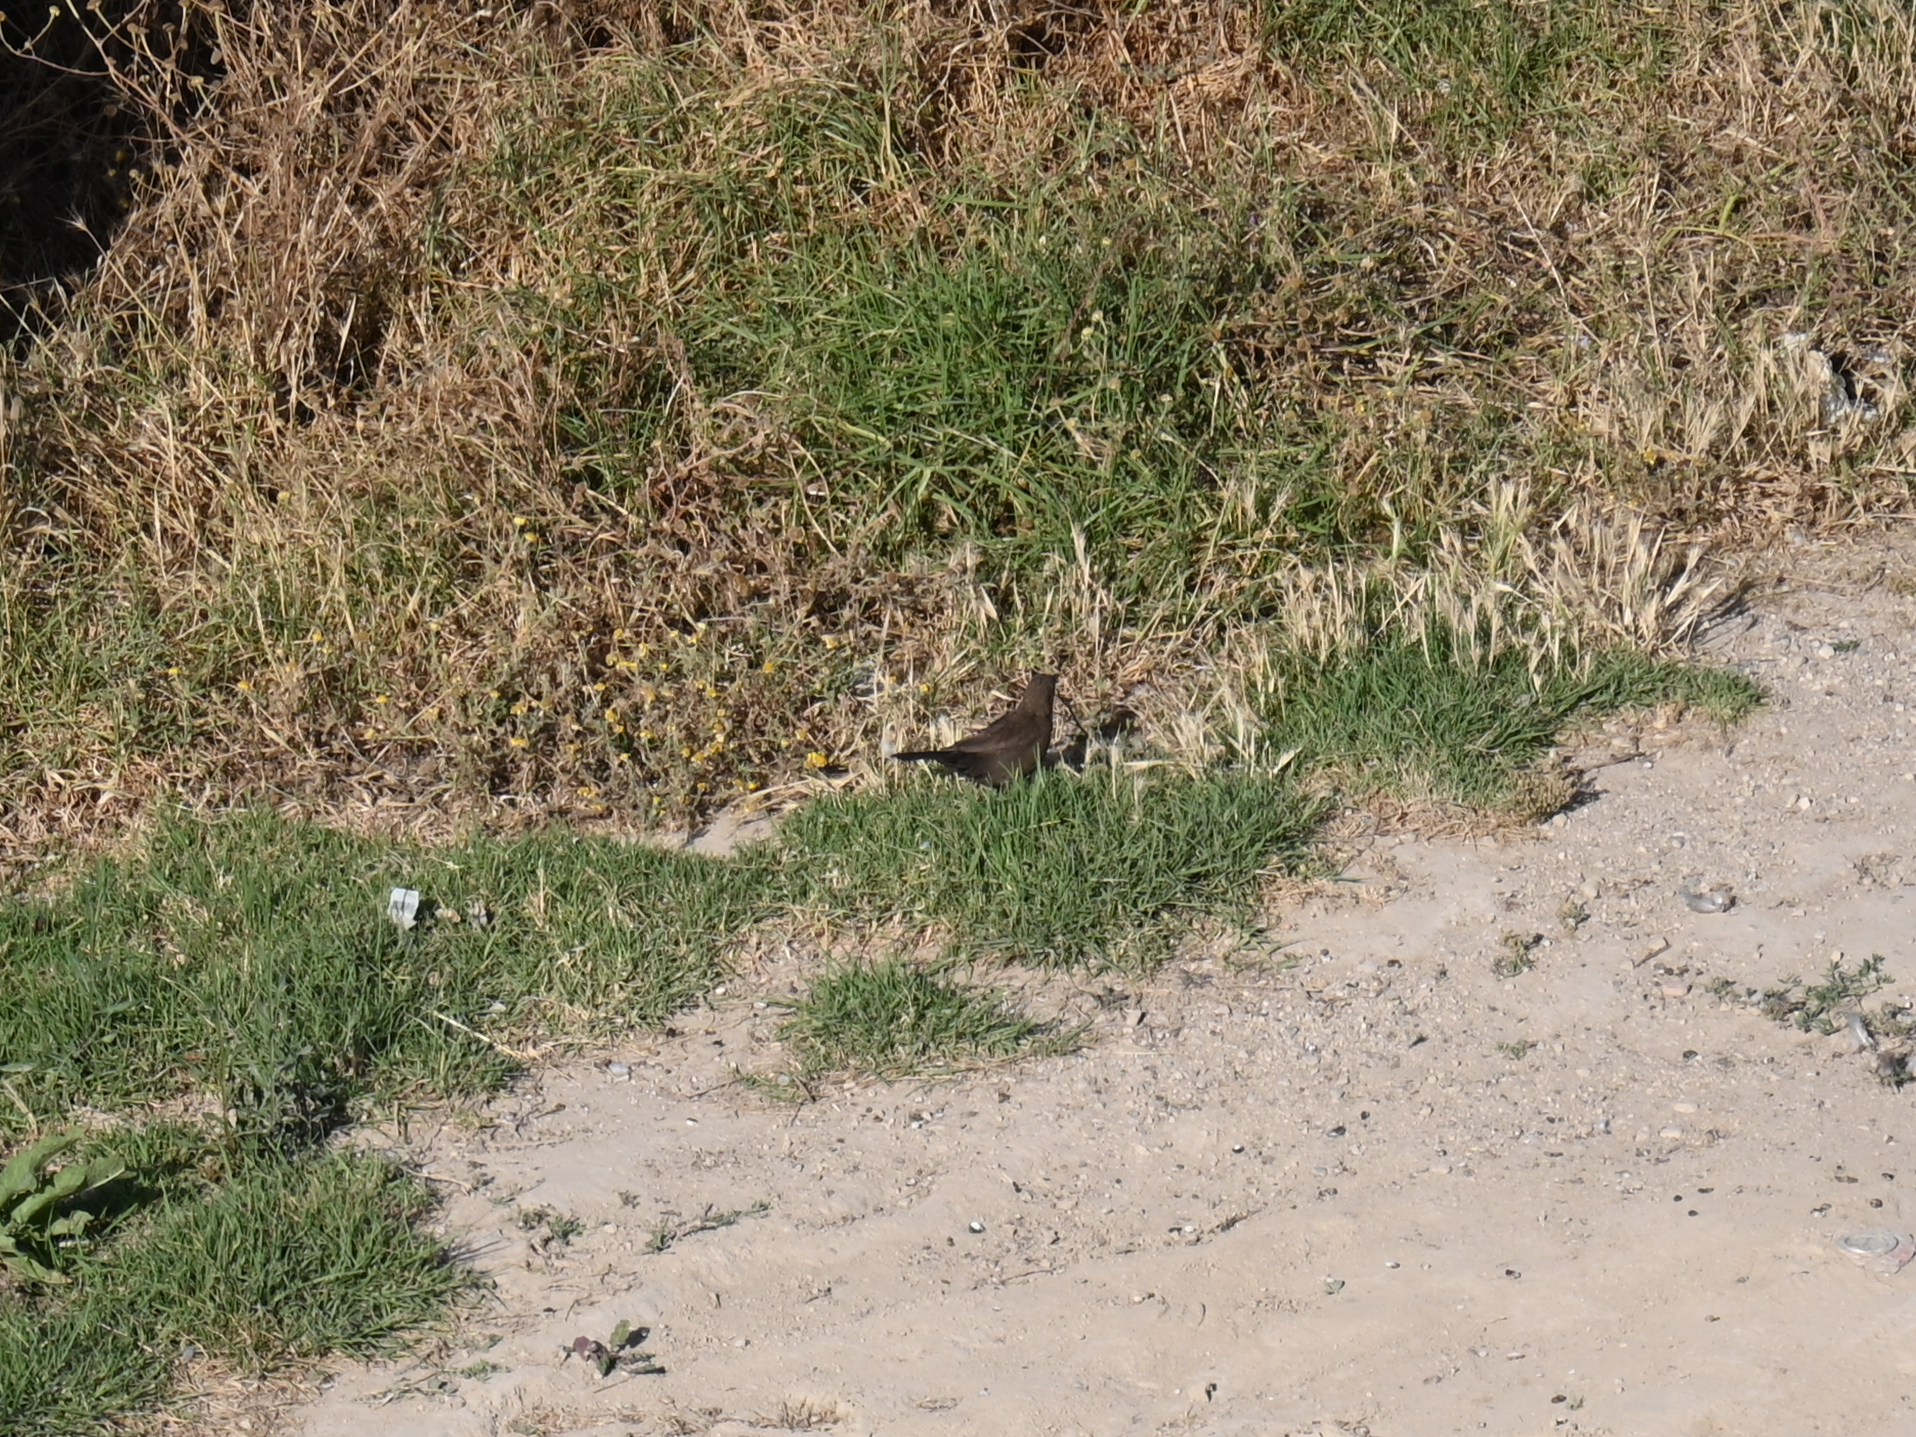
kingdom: Animalia
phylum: Chordata
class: Aves
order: Passeriformes
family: Turdidae
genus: Turdus
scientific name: Turdus merula
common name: Common blackbird
